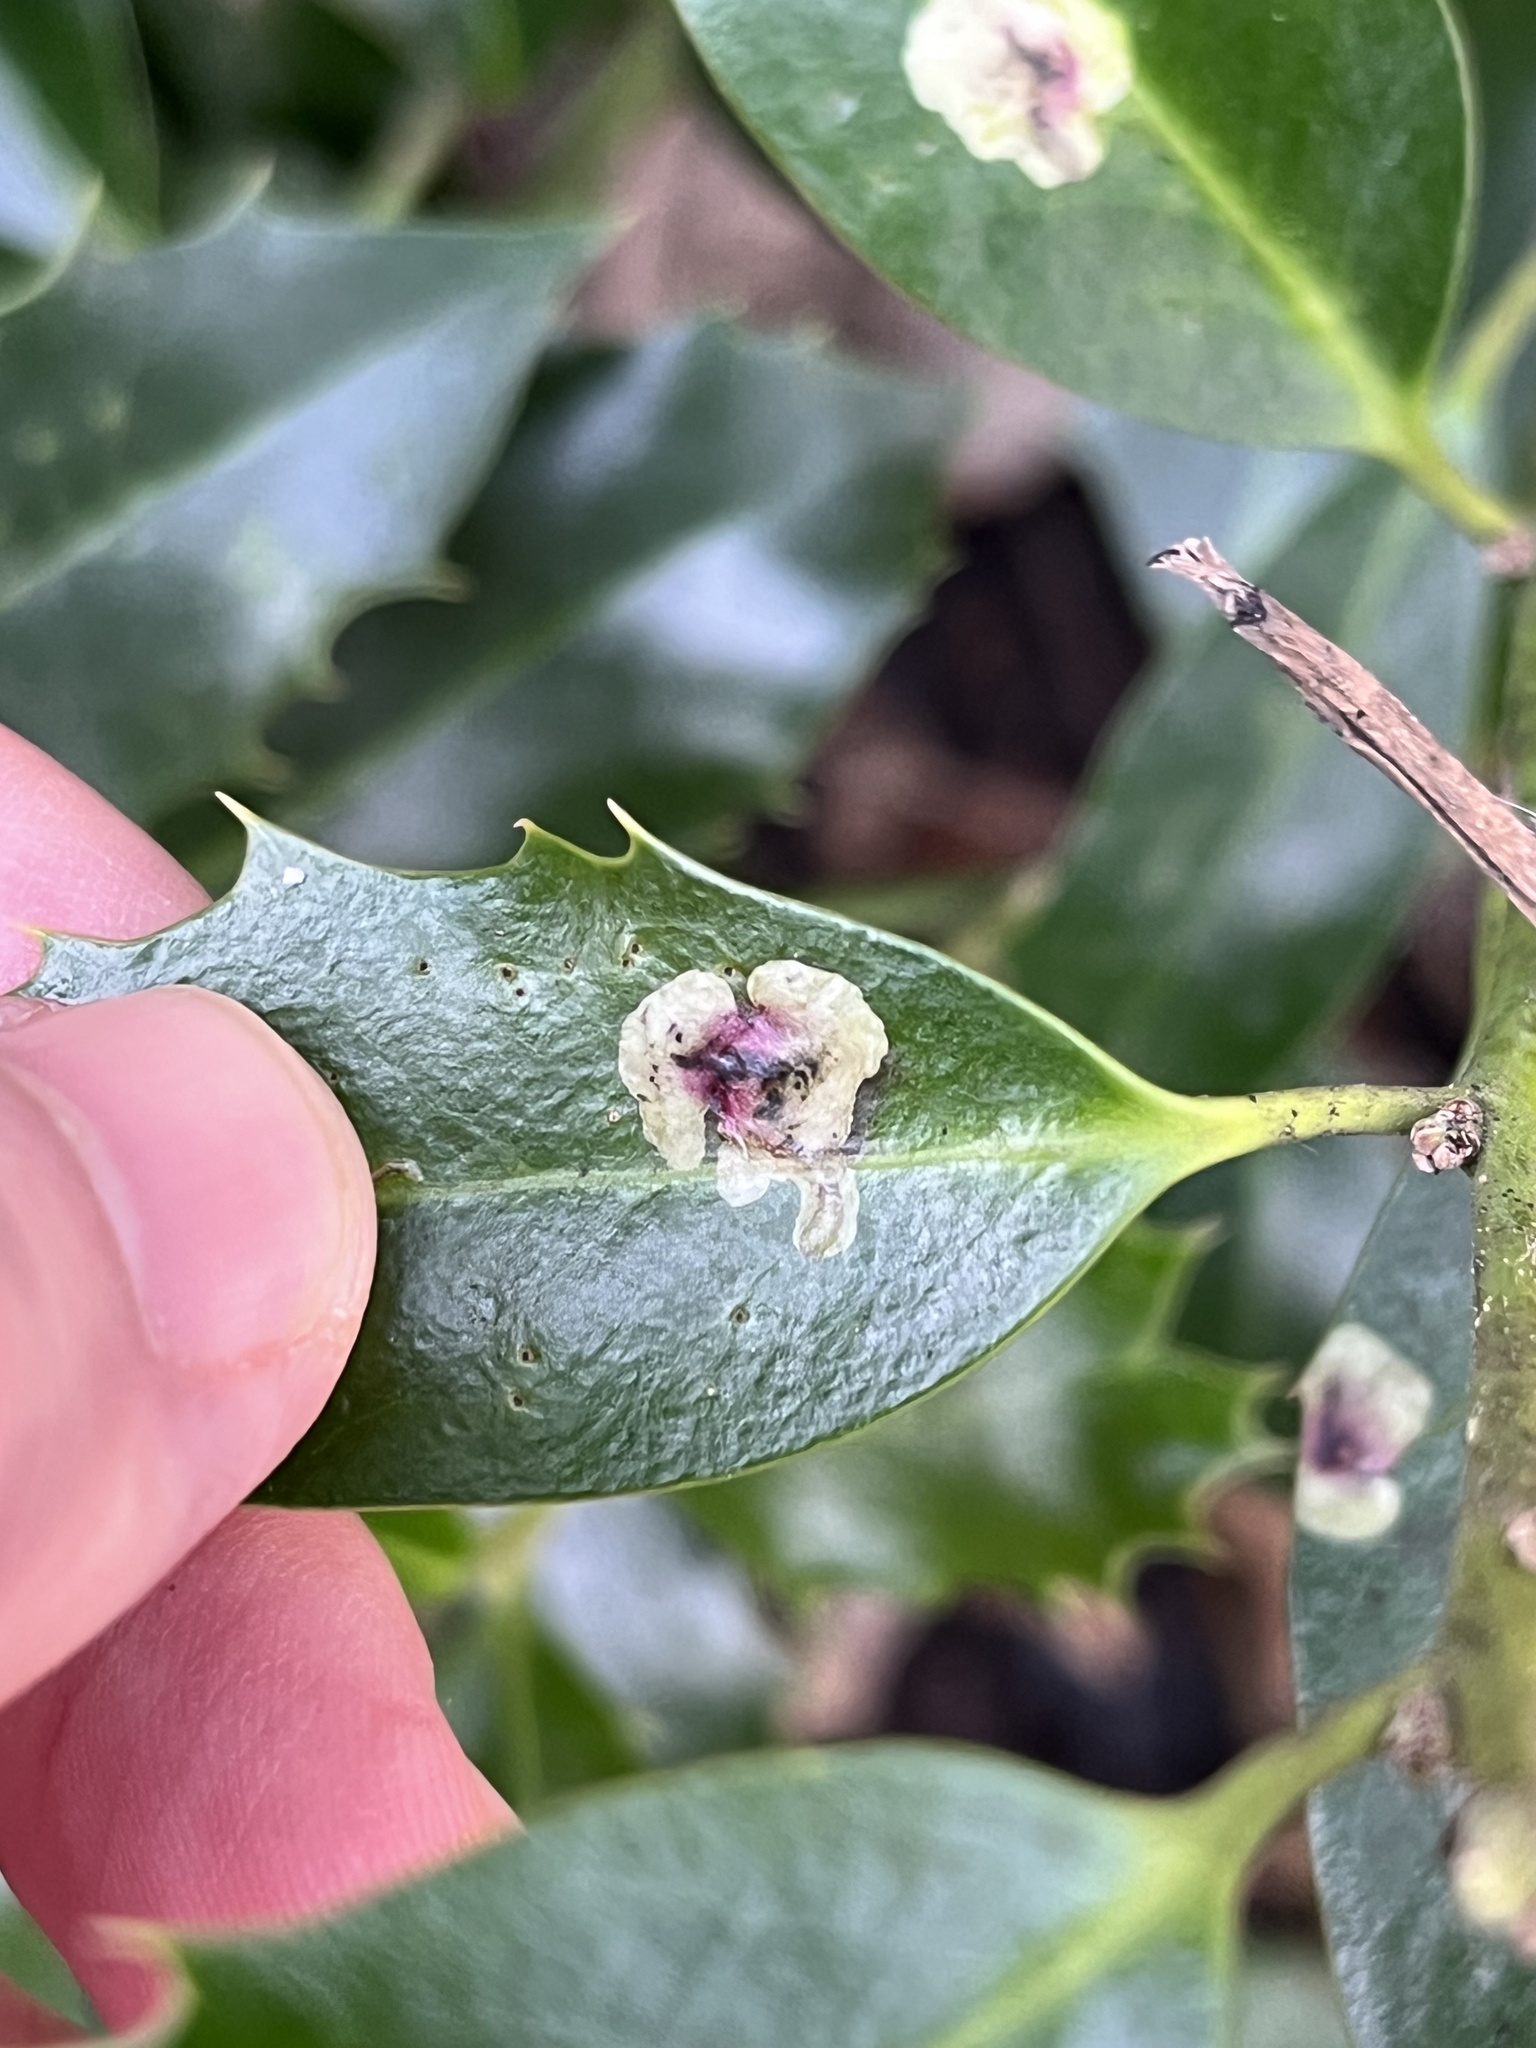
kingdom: Animalia
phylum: Arthropoda
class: Insecta
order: Diptera
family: Agromyzidae
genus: Phytomyza
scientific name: Phytomyza ilicis
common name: Holly leafminer
